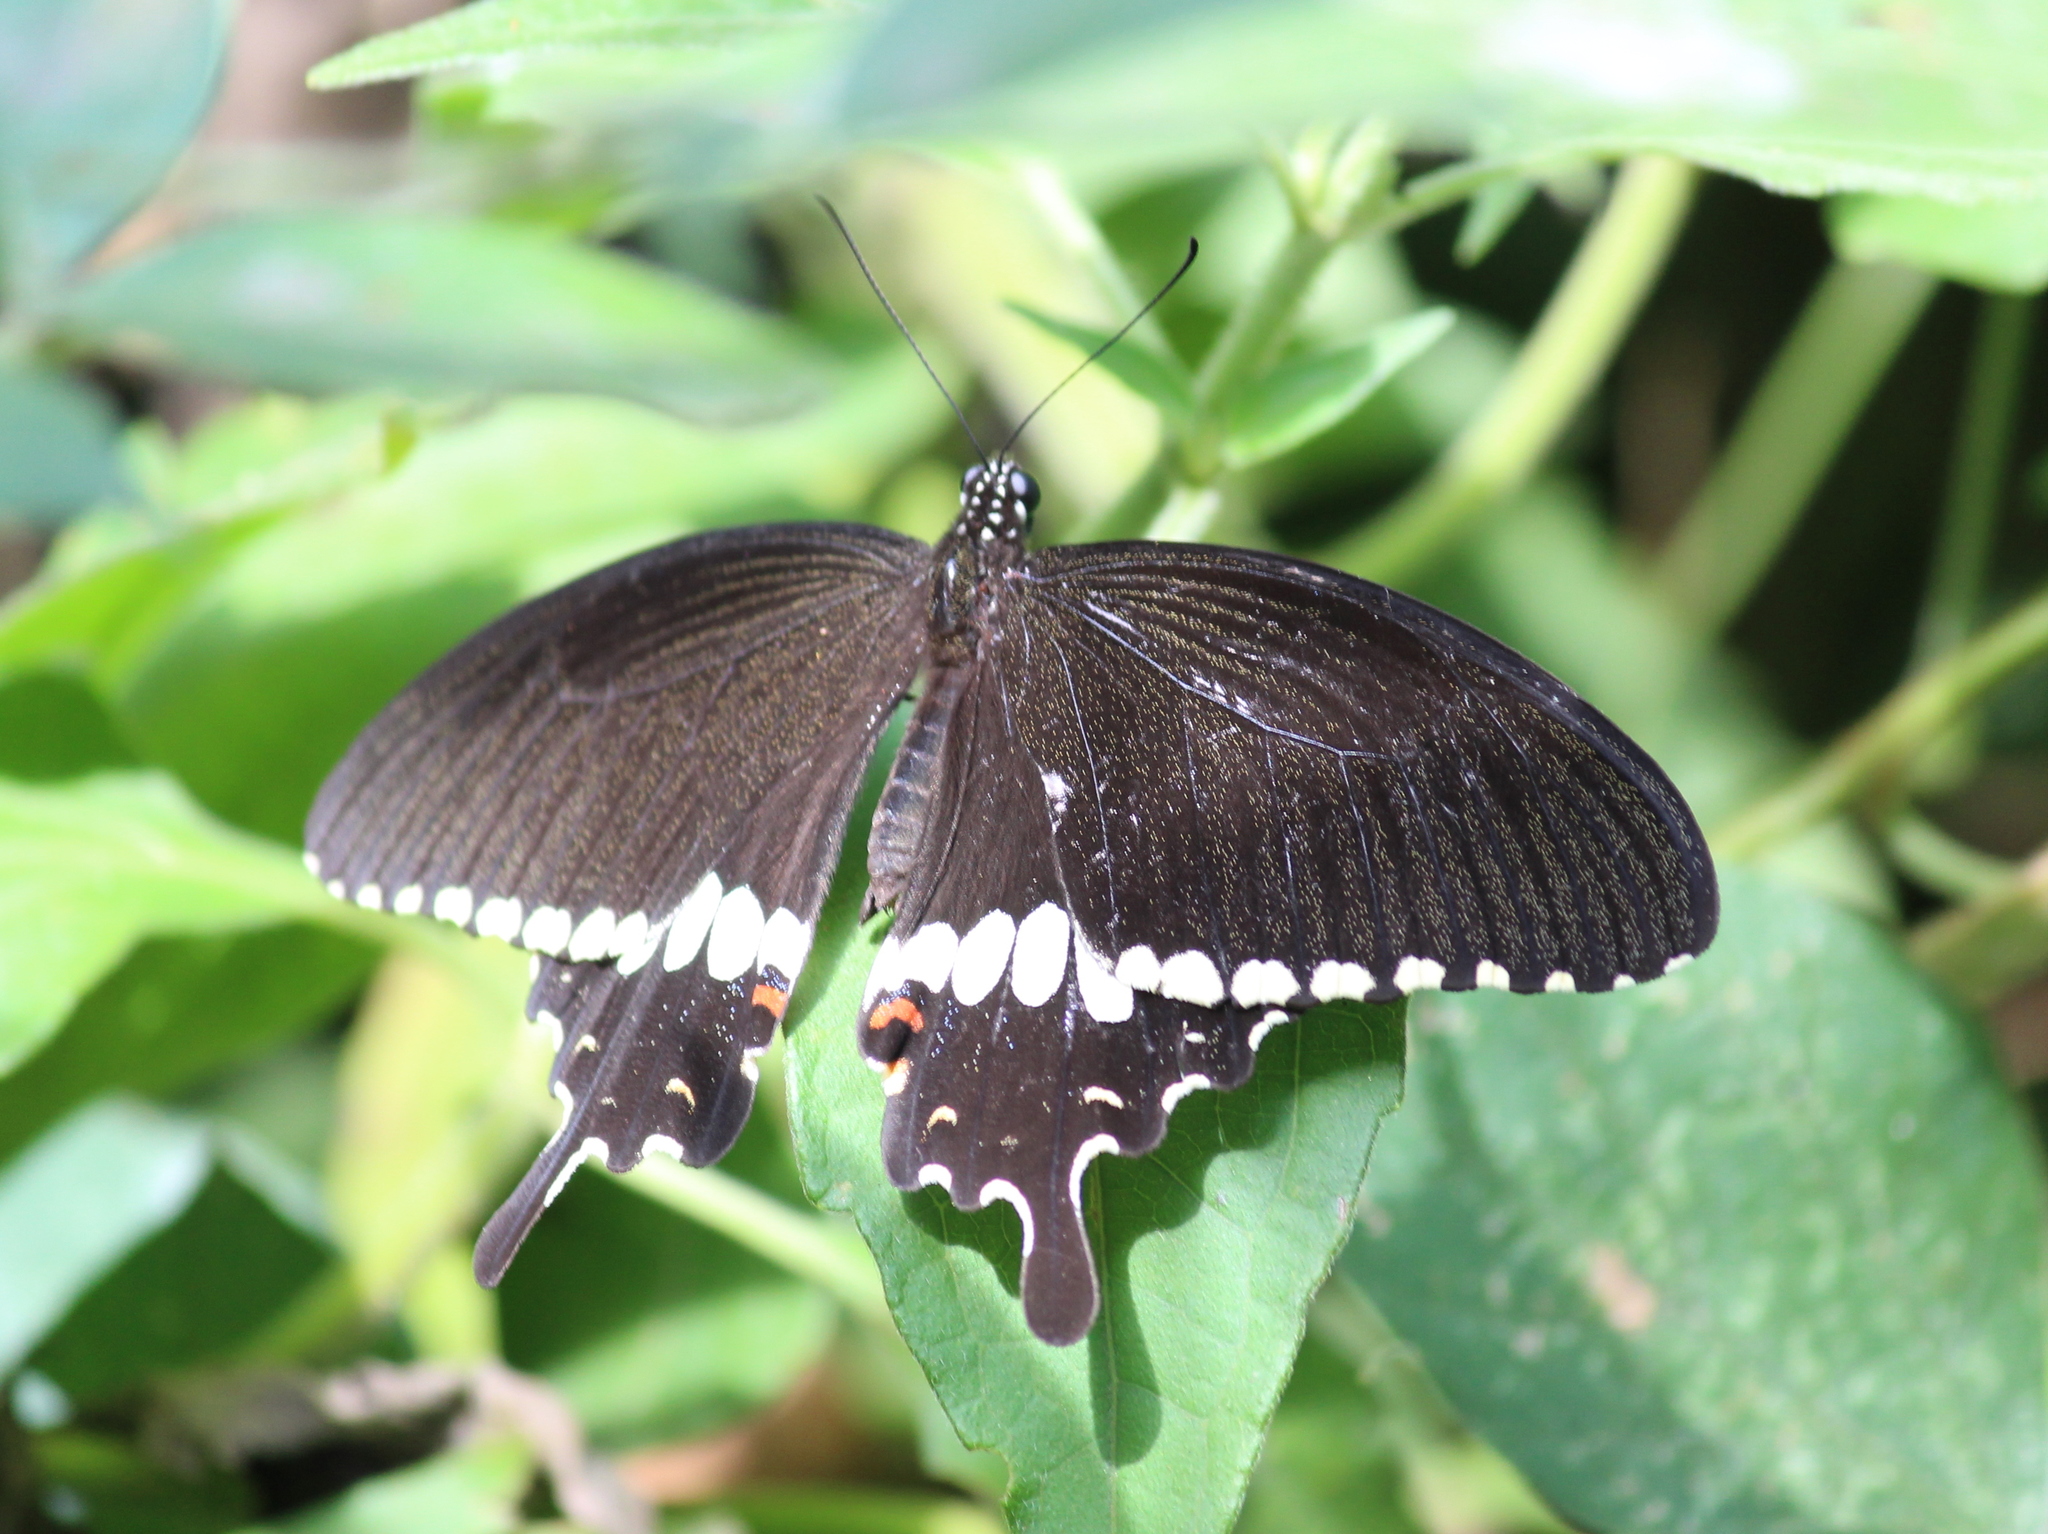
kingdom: Animalia
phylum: Arthropoda
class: Insecta
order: Lepidoptera
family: Papilionidae
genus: Papilio
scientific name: Papilio polytes
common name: Common mormon
